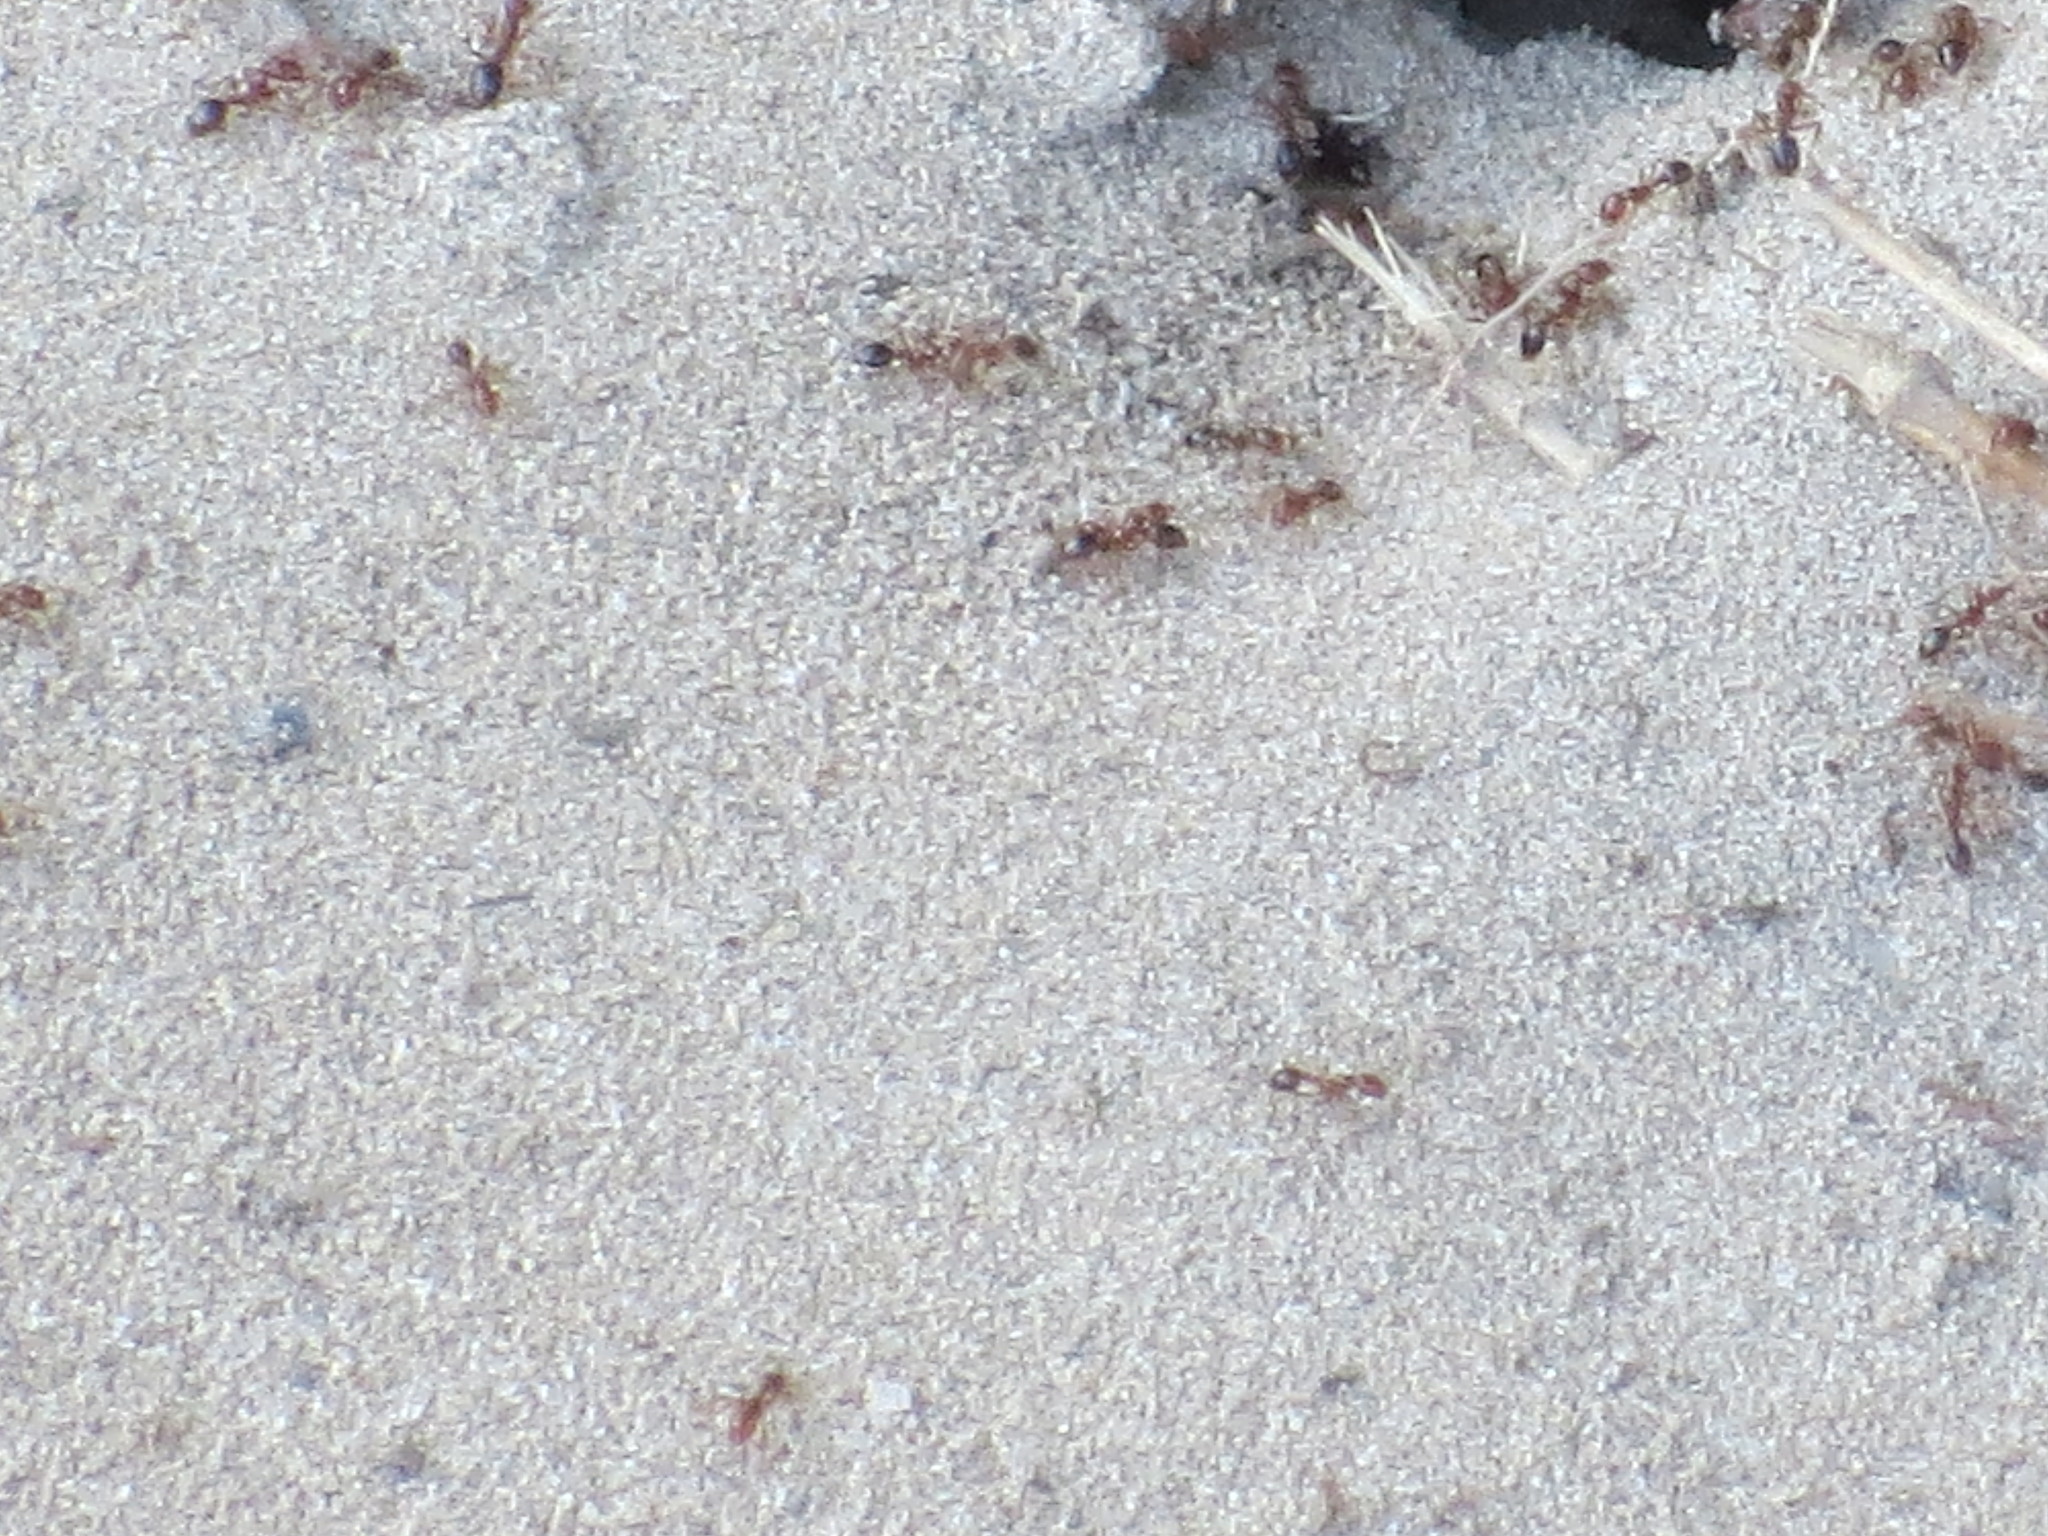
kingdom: Animalia
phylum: Arthropoda
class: Insecta
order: Hymenoptera
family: Formicidae
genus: Solenopsis
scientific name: Solenopsis invicta
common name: Red imported fire ant
